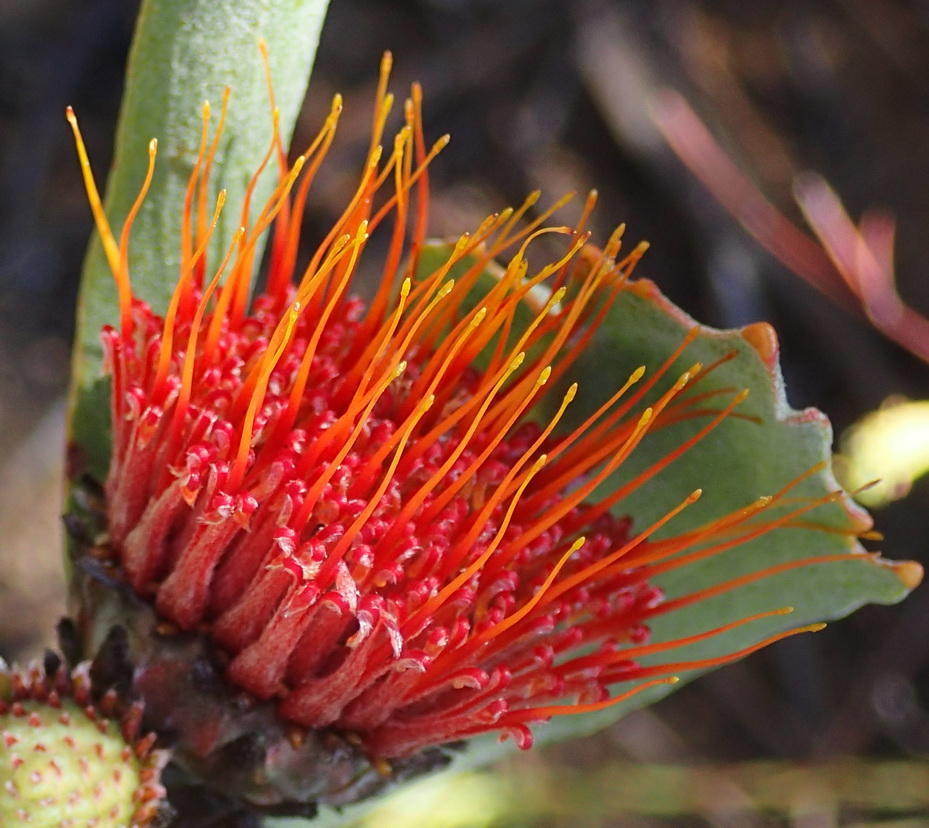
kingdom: Plantae
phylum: Tracheophyta
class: Magnoliopsida
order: Proteales
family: Proteaceae
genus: Leucospermum
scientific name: Leucospermum mundii
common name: Langeberg pincushion
